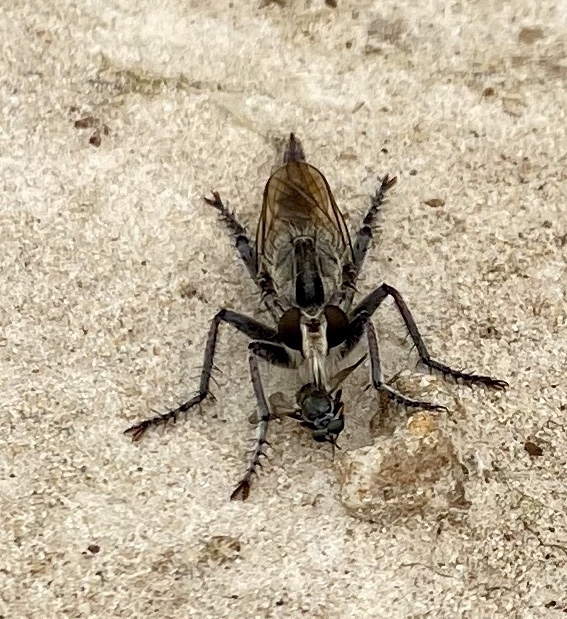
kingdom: Animalia
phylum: Arthropoda
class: Insecta
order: Diptera
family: Asilidae
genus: Triorla
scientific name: Triorla interrupta
